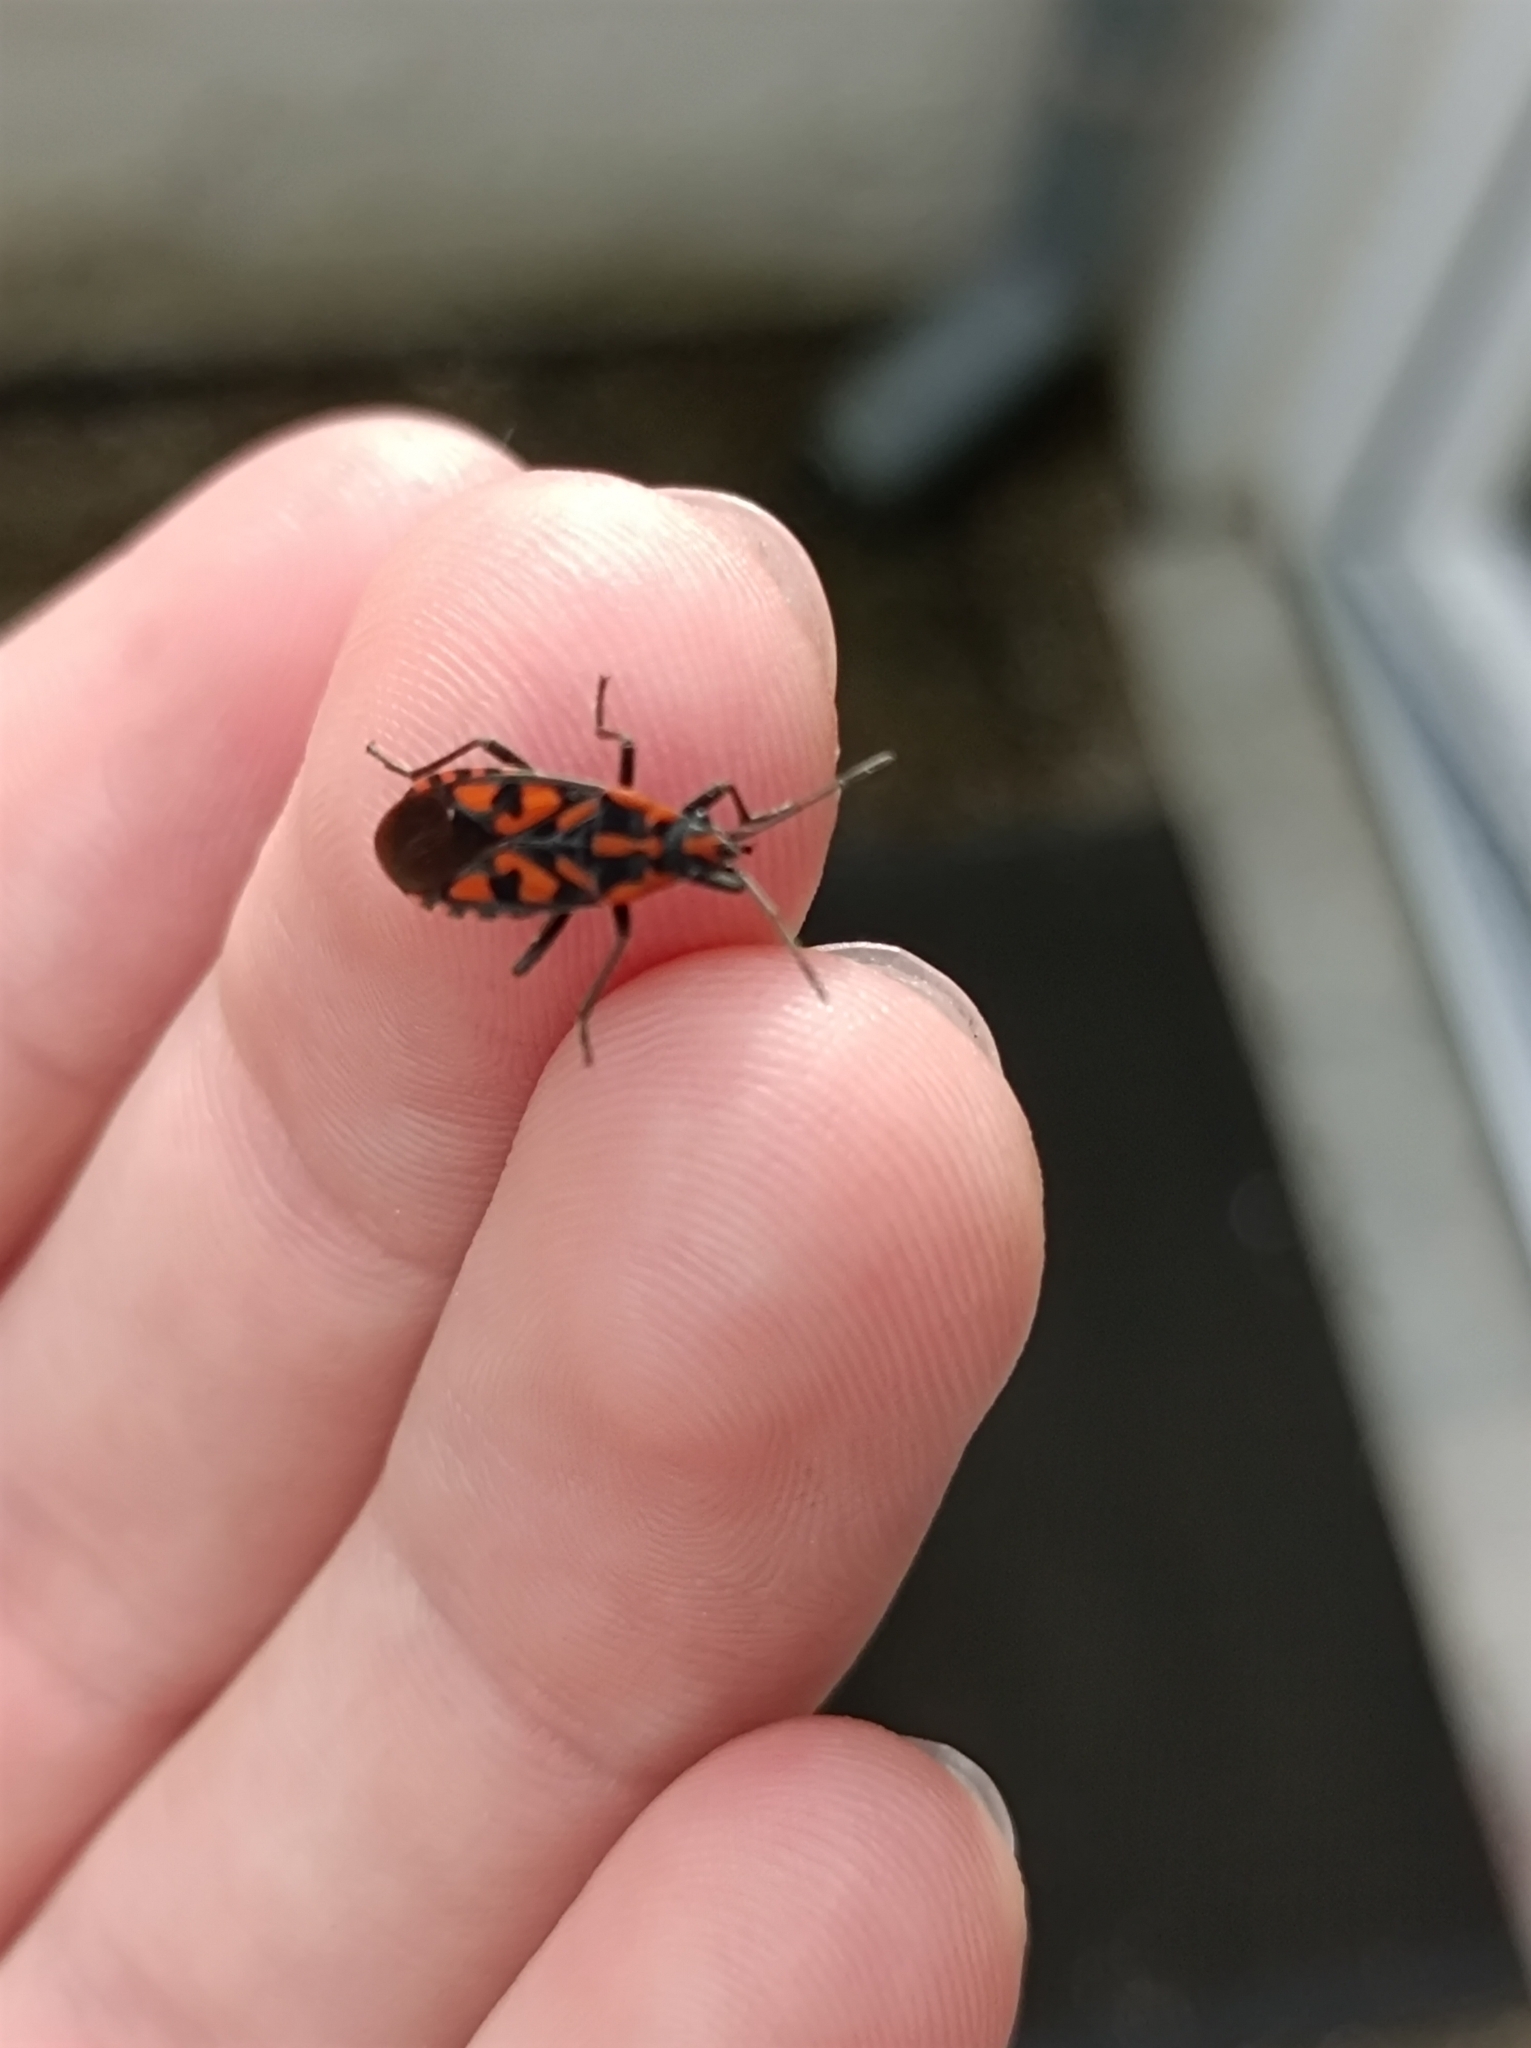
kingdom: Animalia
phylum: Arthropoda
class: Insecta
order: Hemiptera
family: Lygaeidae
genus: Spilostethus
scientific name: Spilostethus saxatilis
